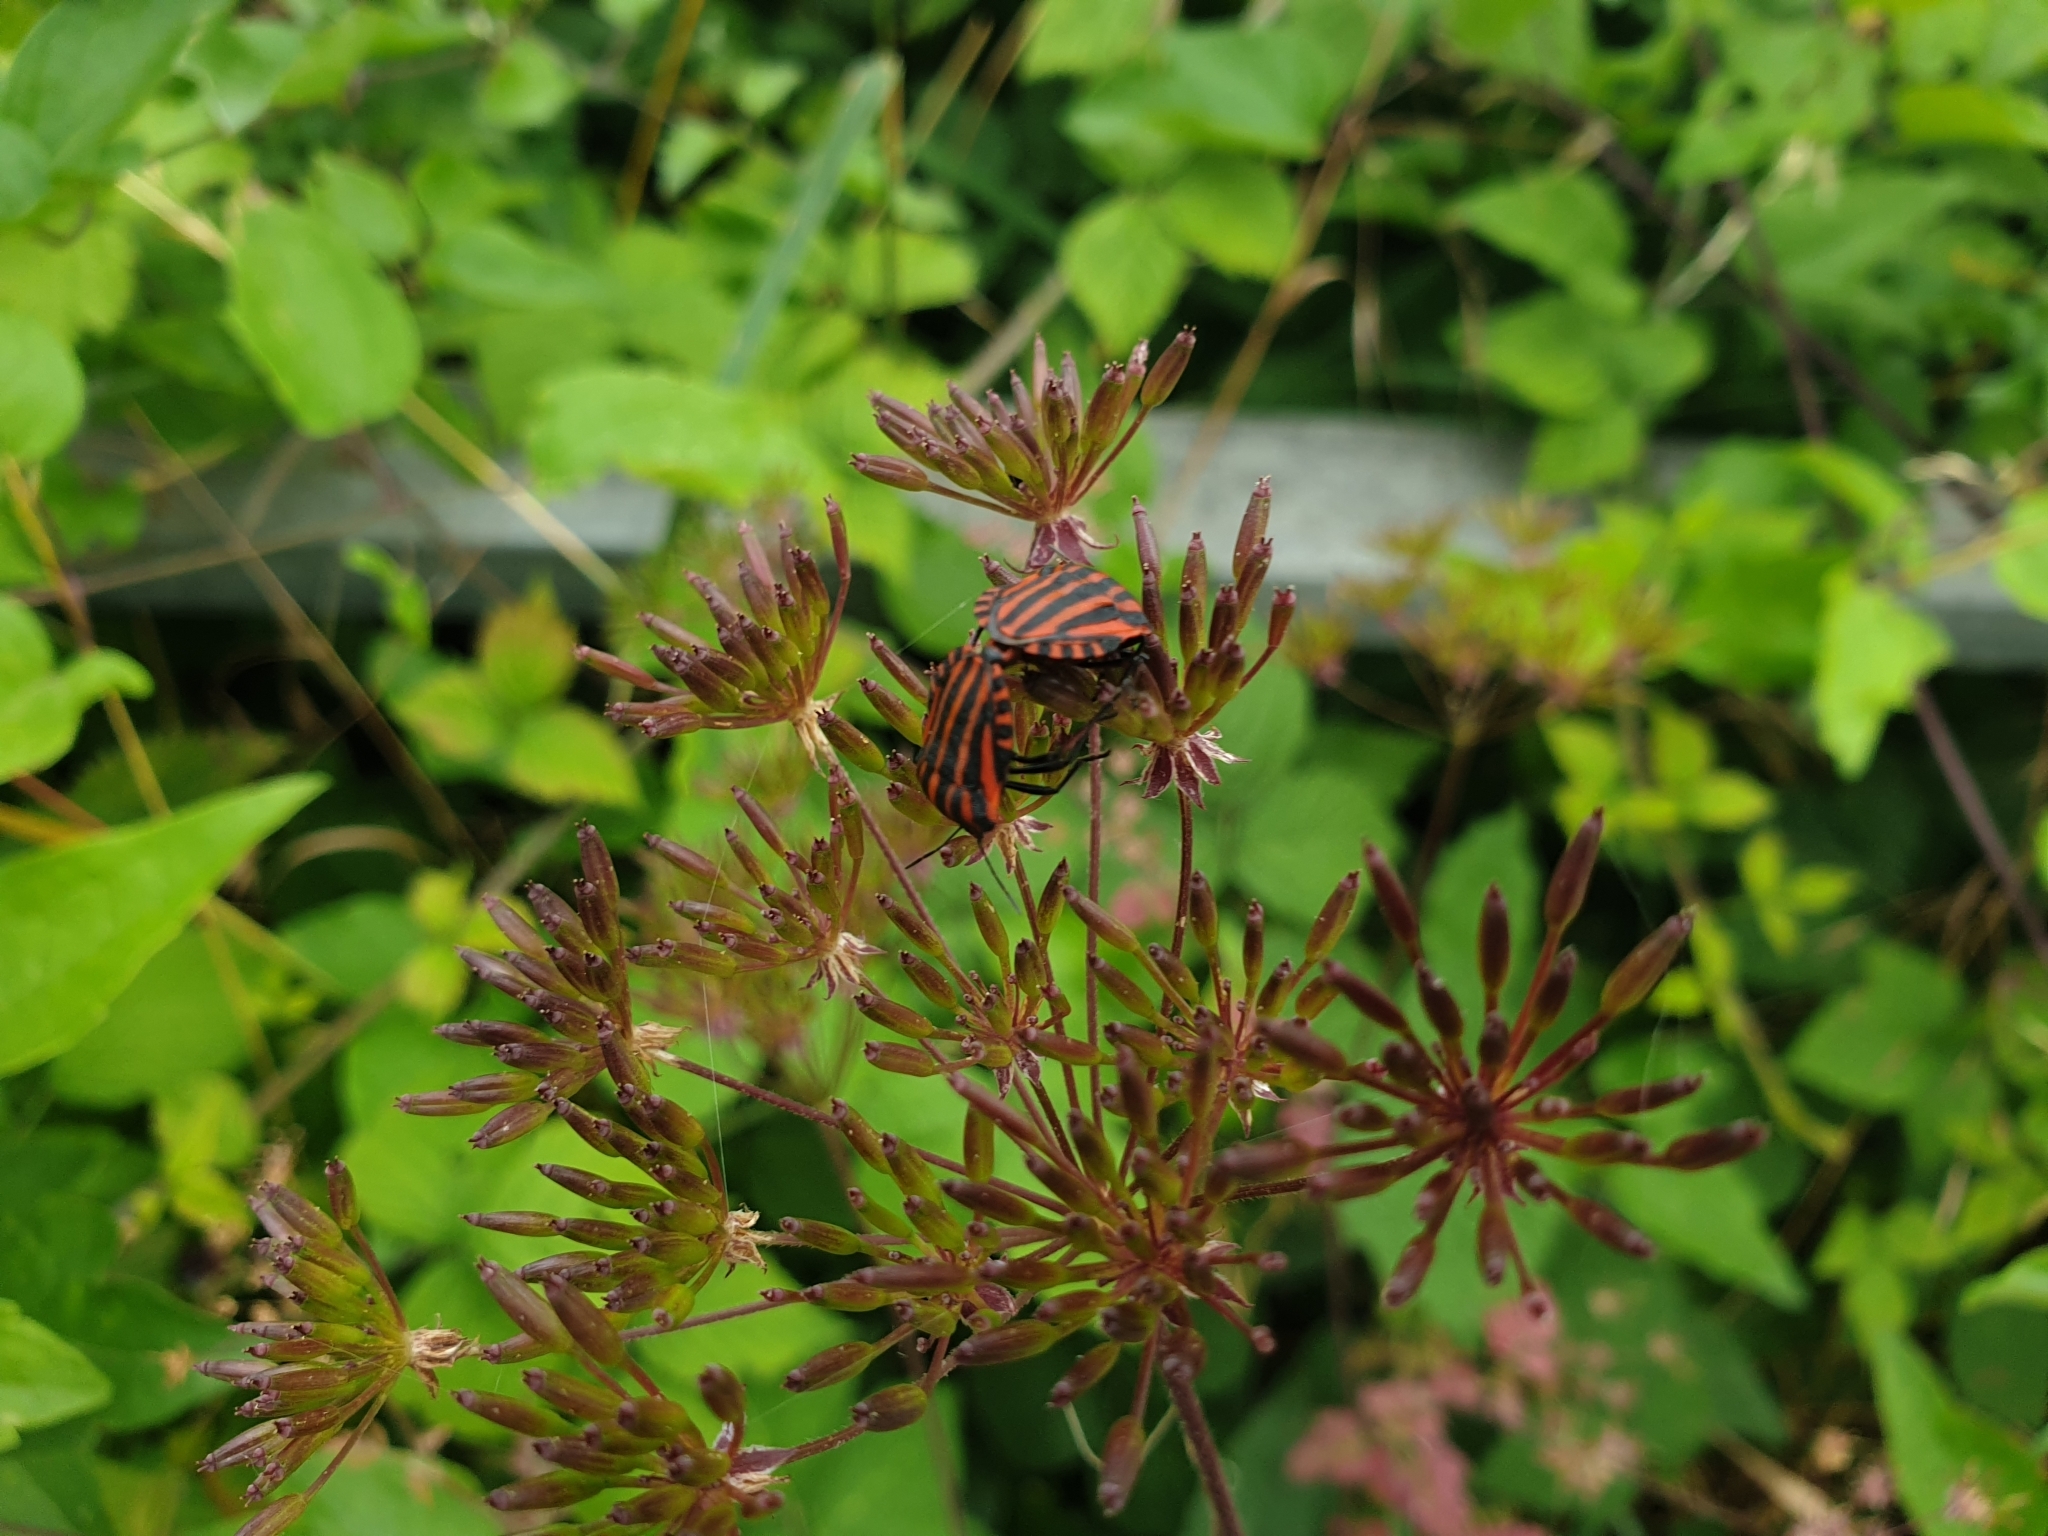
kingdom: Animalia
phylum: Arthropoda
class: Insecta
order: Hemiptera
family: Pentatomidae
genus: Graphosoma
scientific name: Graphosoma italicum
